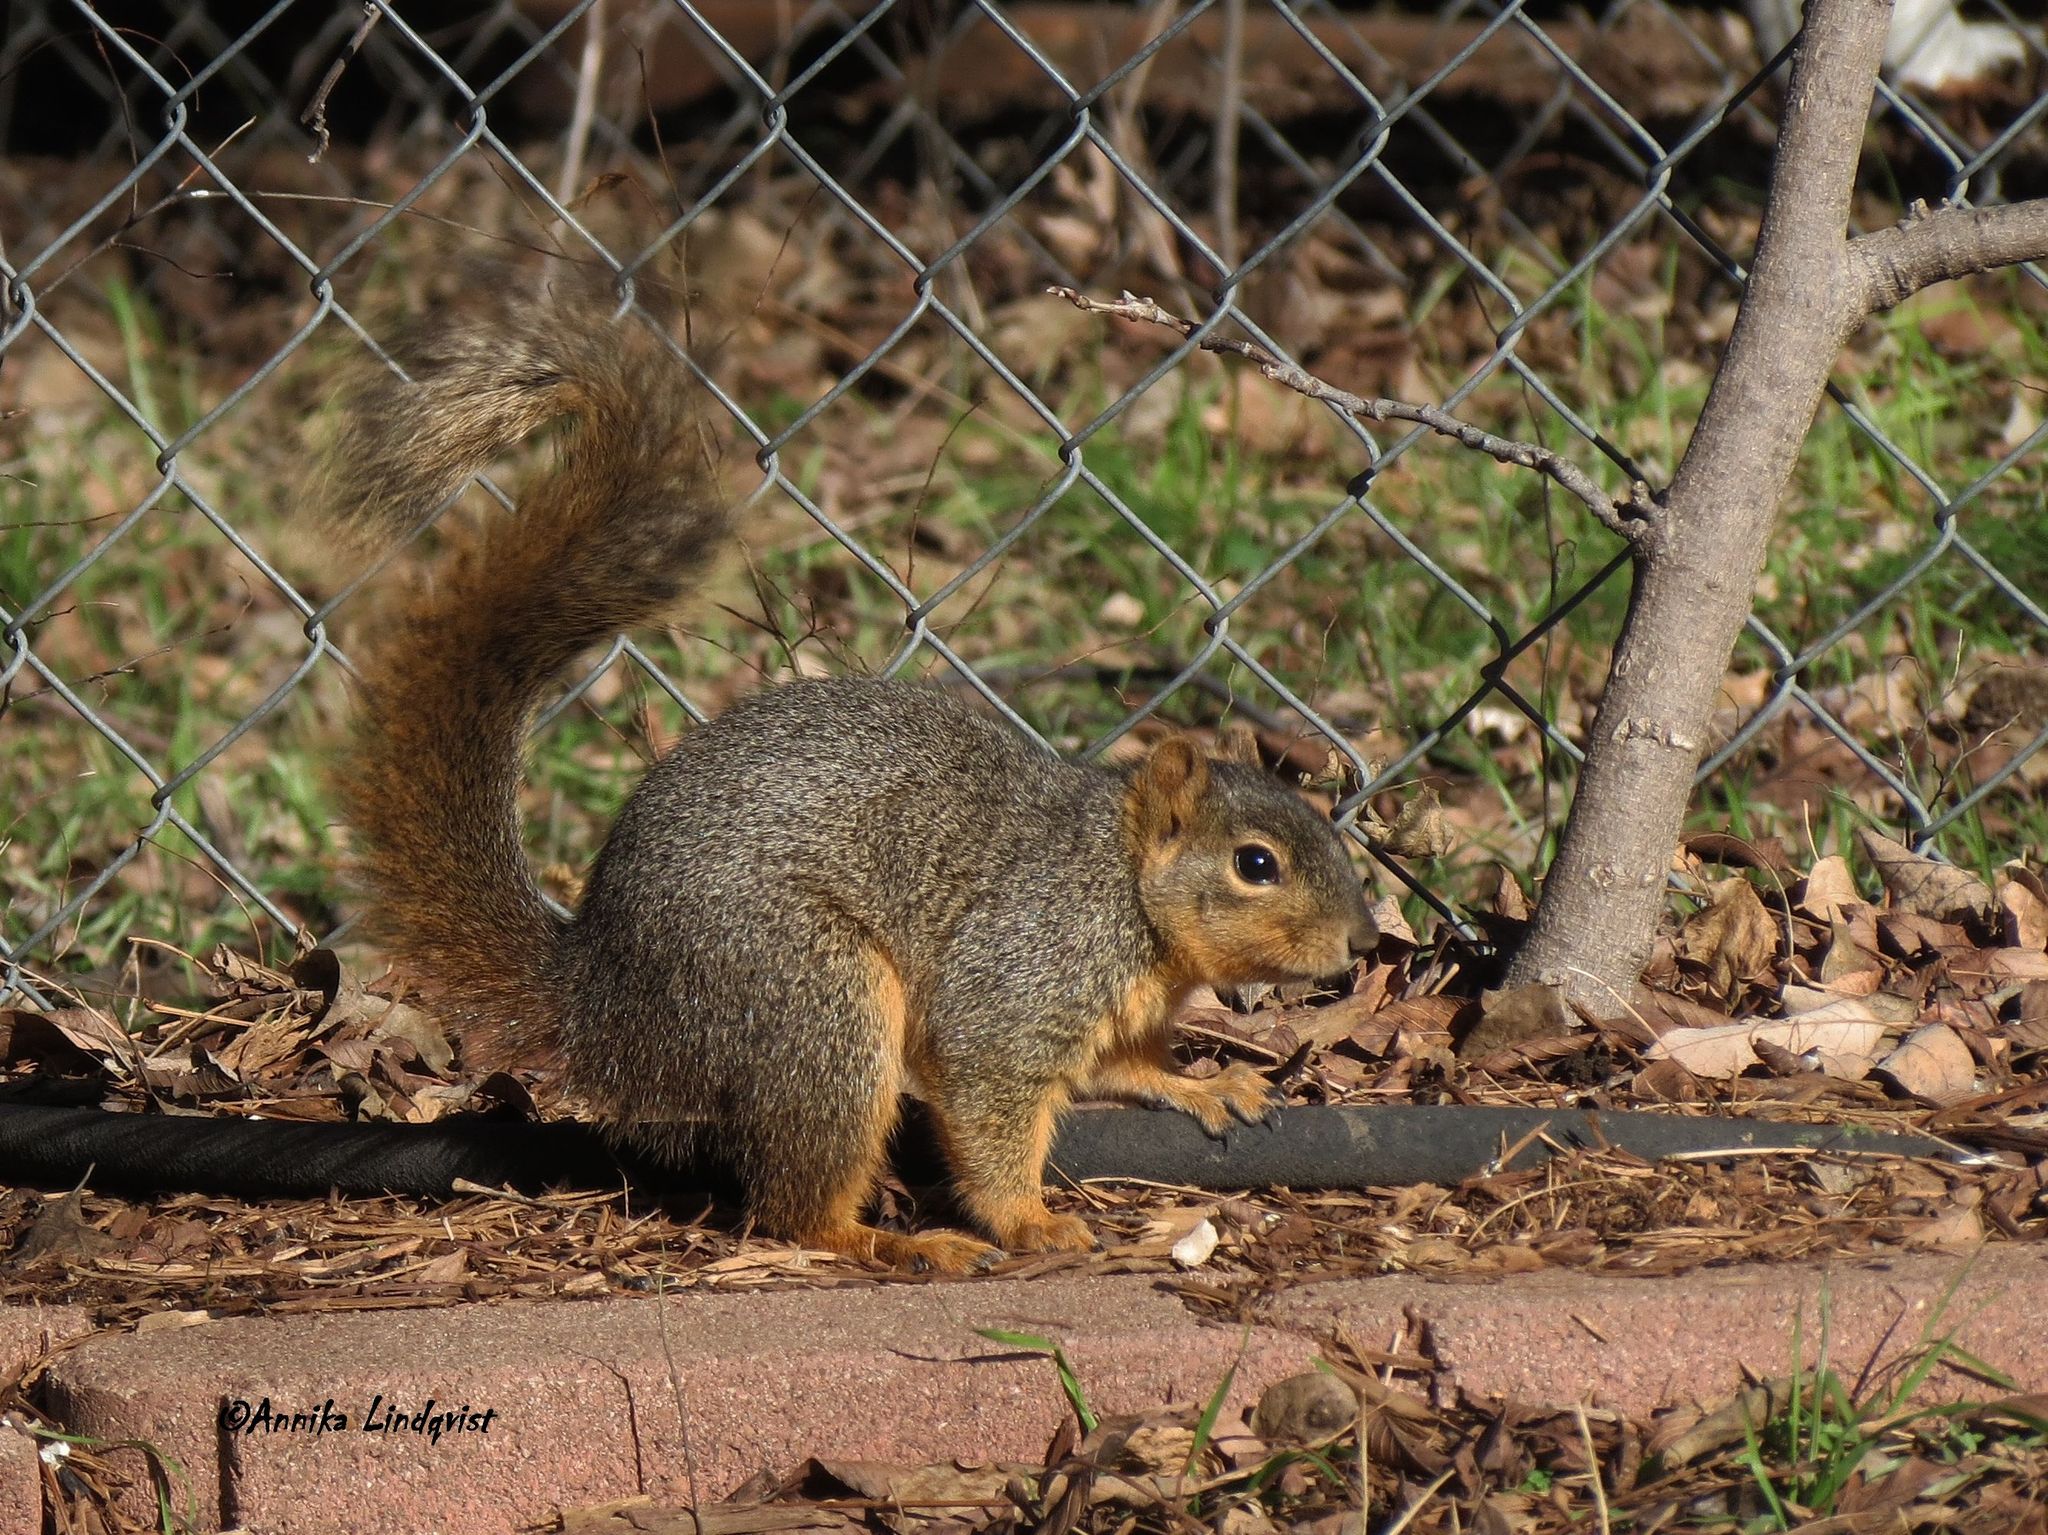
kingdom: Animalia
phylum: Chordata
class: Mammalia
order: Rodentia
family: Sciuridae
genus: Sciurus
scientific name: Sciurus niger
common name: Fox squirrel
